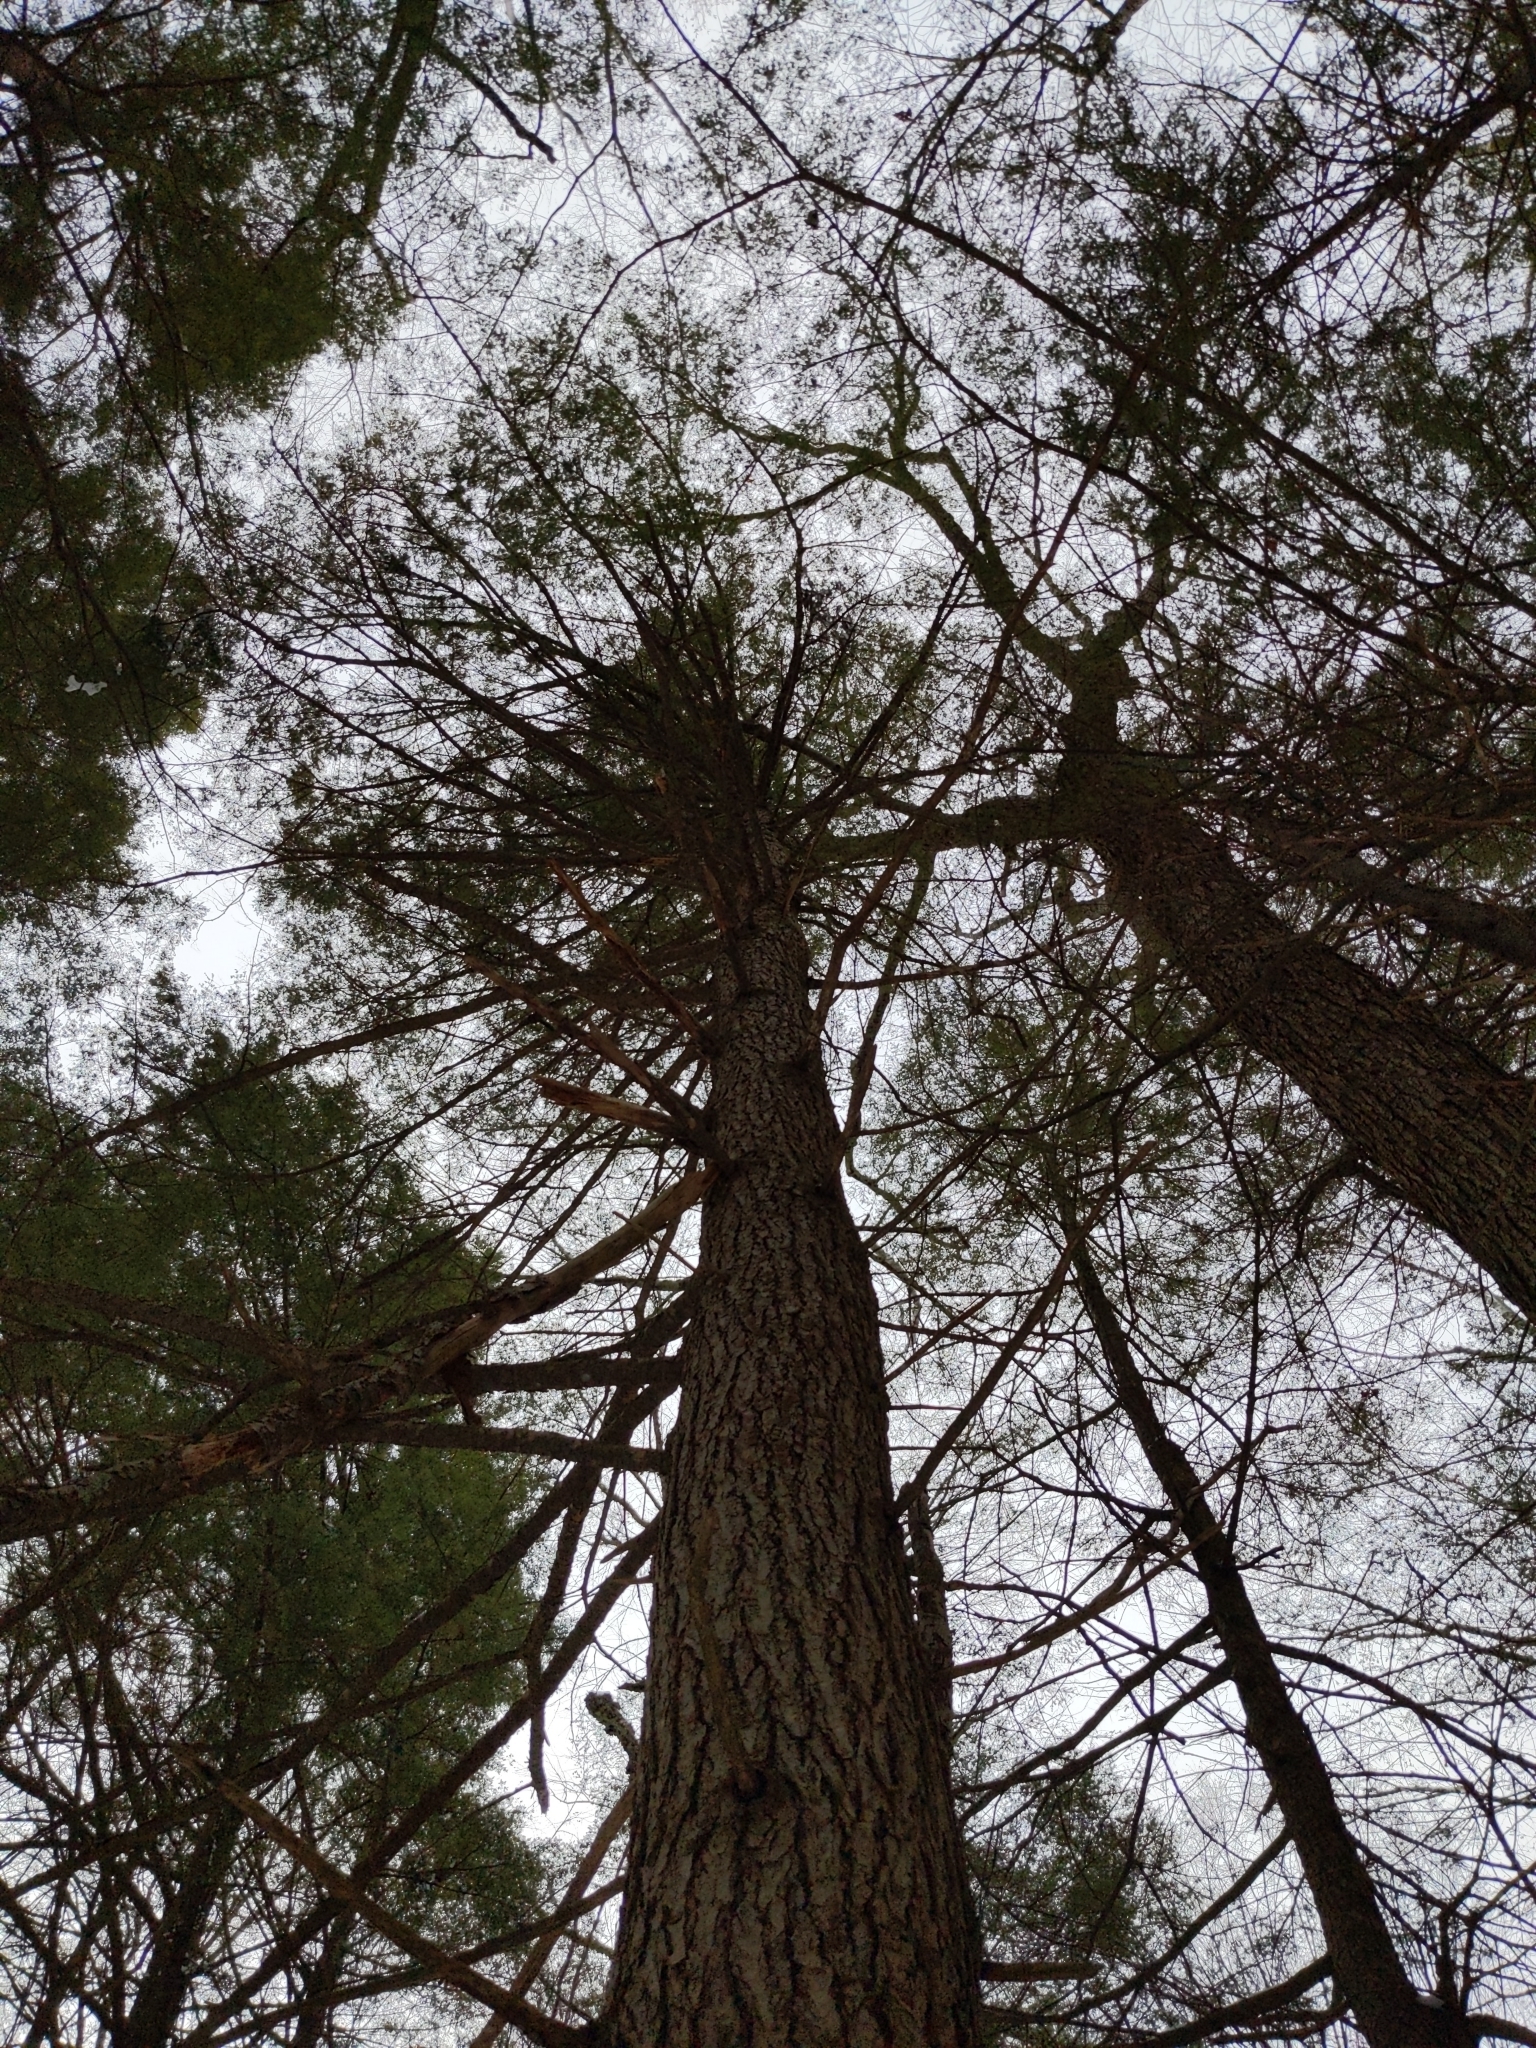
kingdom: Plantae
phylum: Tracheophyta
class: Pinopsida
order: Pinales
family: Pinaceae
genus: Tsuga
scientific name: Tsuga canadensis
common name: Eastern hemlock
